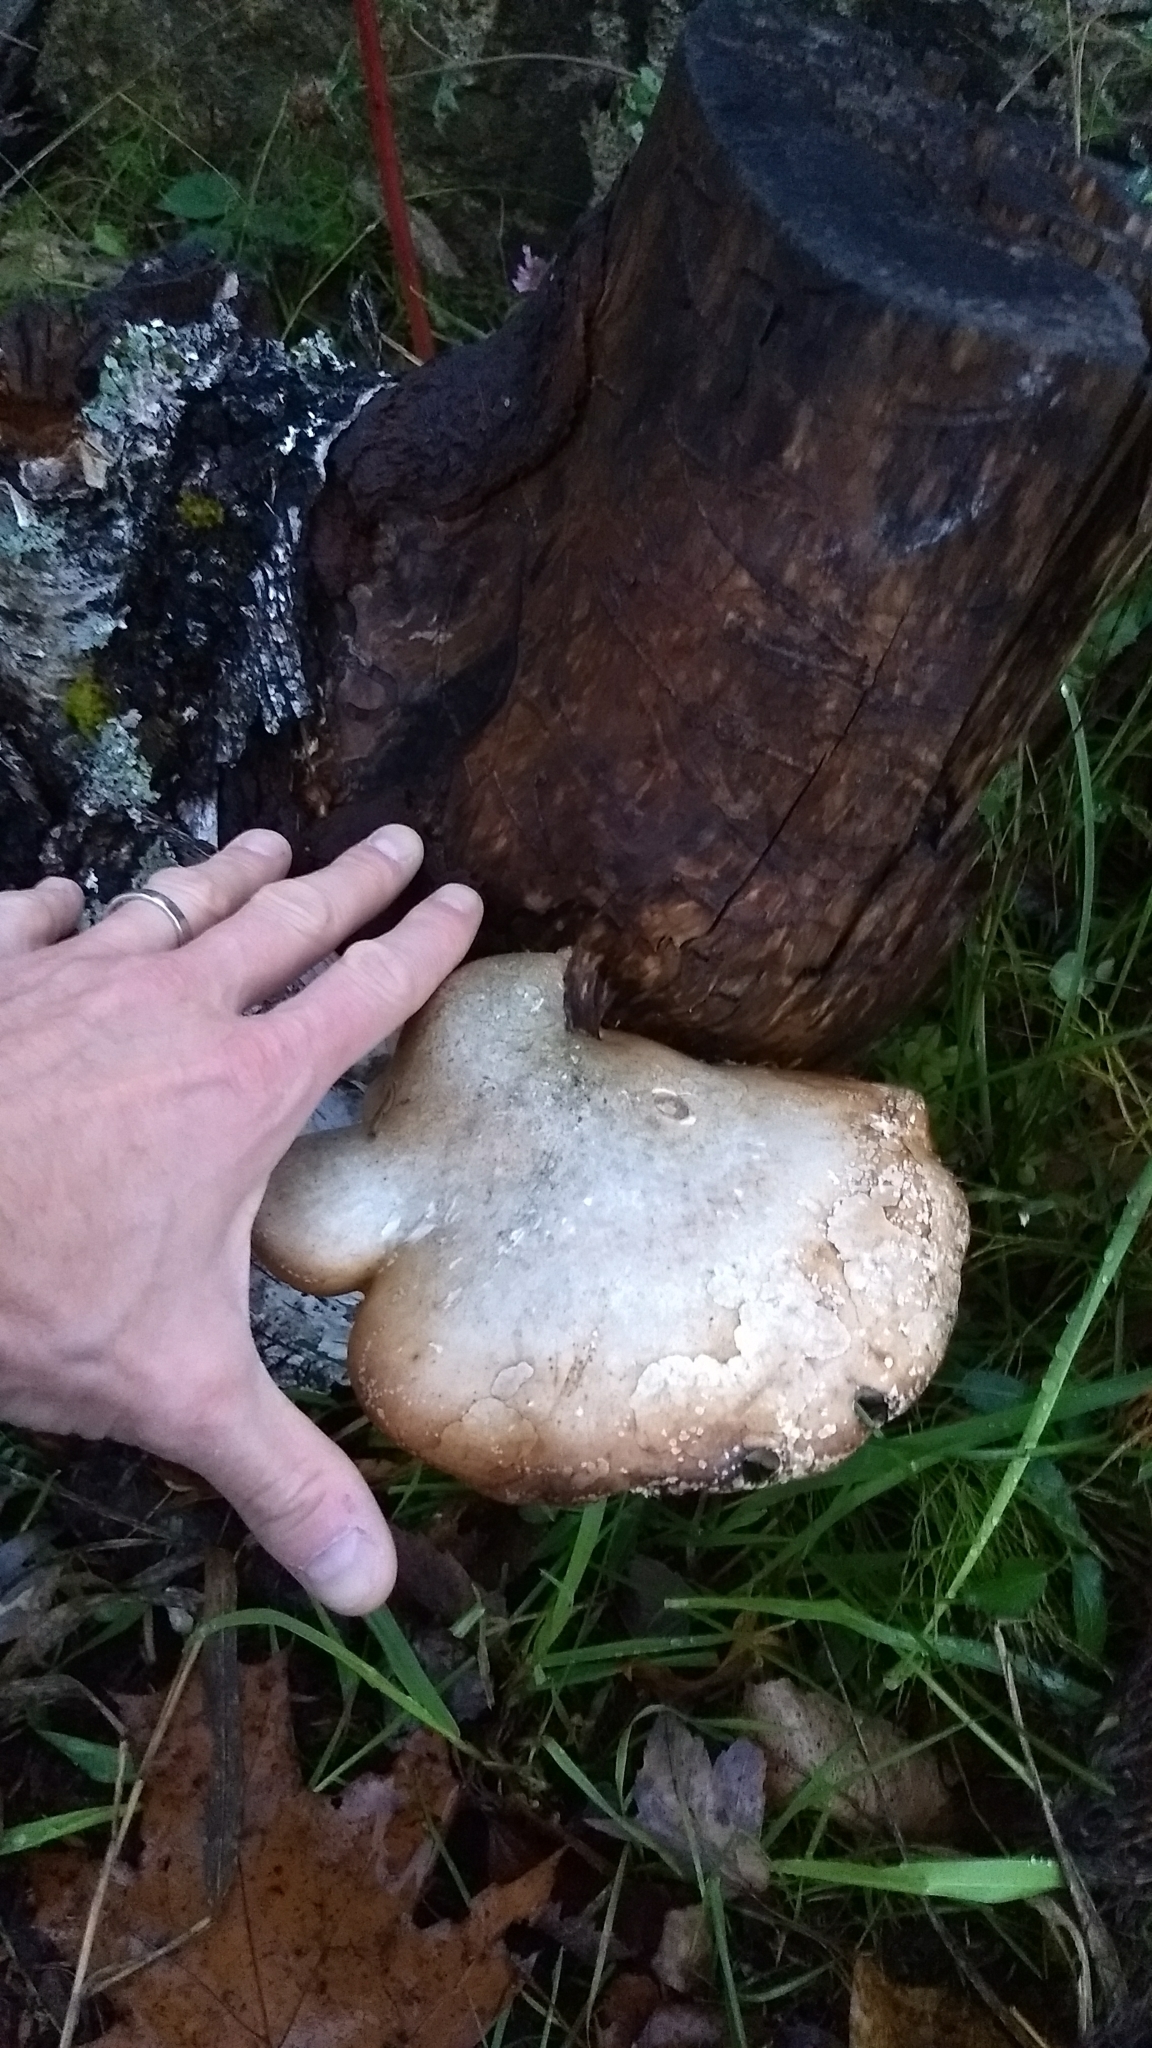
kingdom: Fungi
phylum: Basidiomycota
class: Agaricomycetes
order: Polyporales
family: Fomitopsidaceae
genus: Fomitopsis
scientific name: Fomitopsis betulina
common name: Birch polypore
